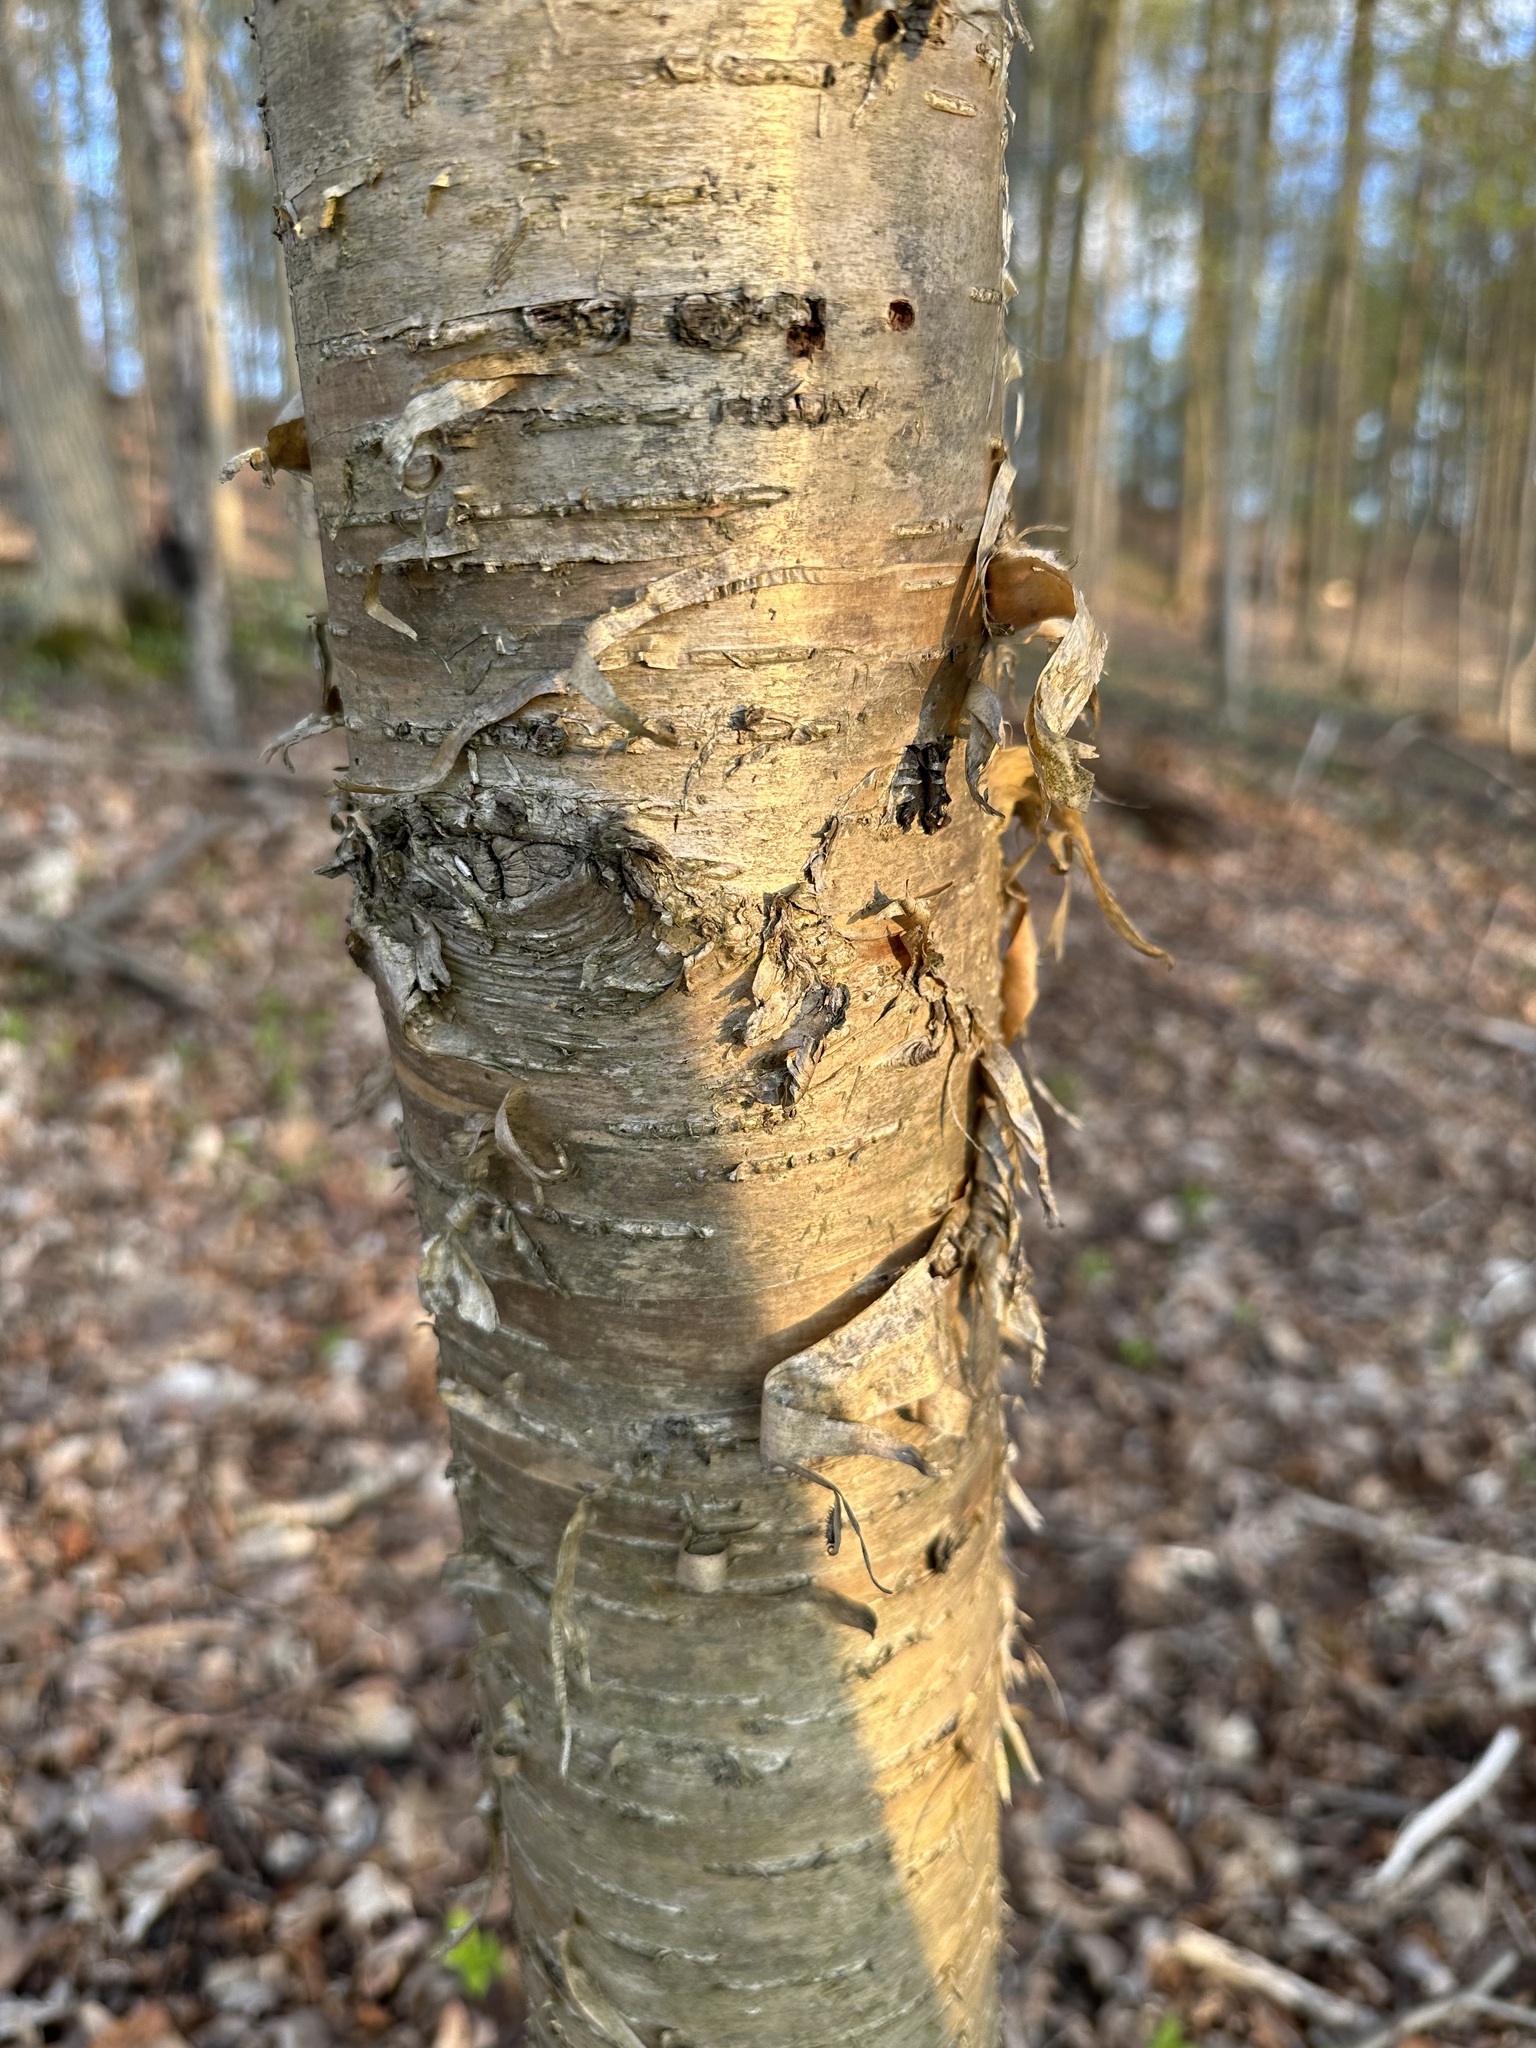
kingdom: Plantae
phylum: Tracheophyta
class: Magnoliopsida
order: Fagales
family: Betulaceae
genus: Betula
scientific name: Betula alleghaniensis
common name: Yellow birch
